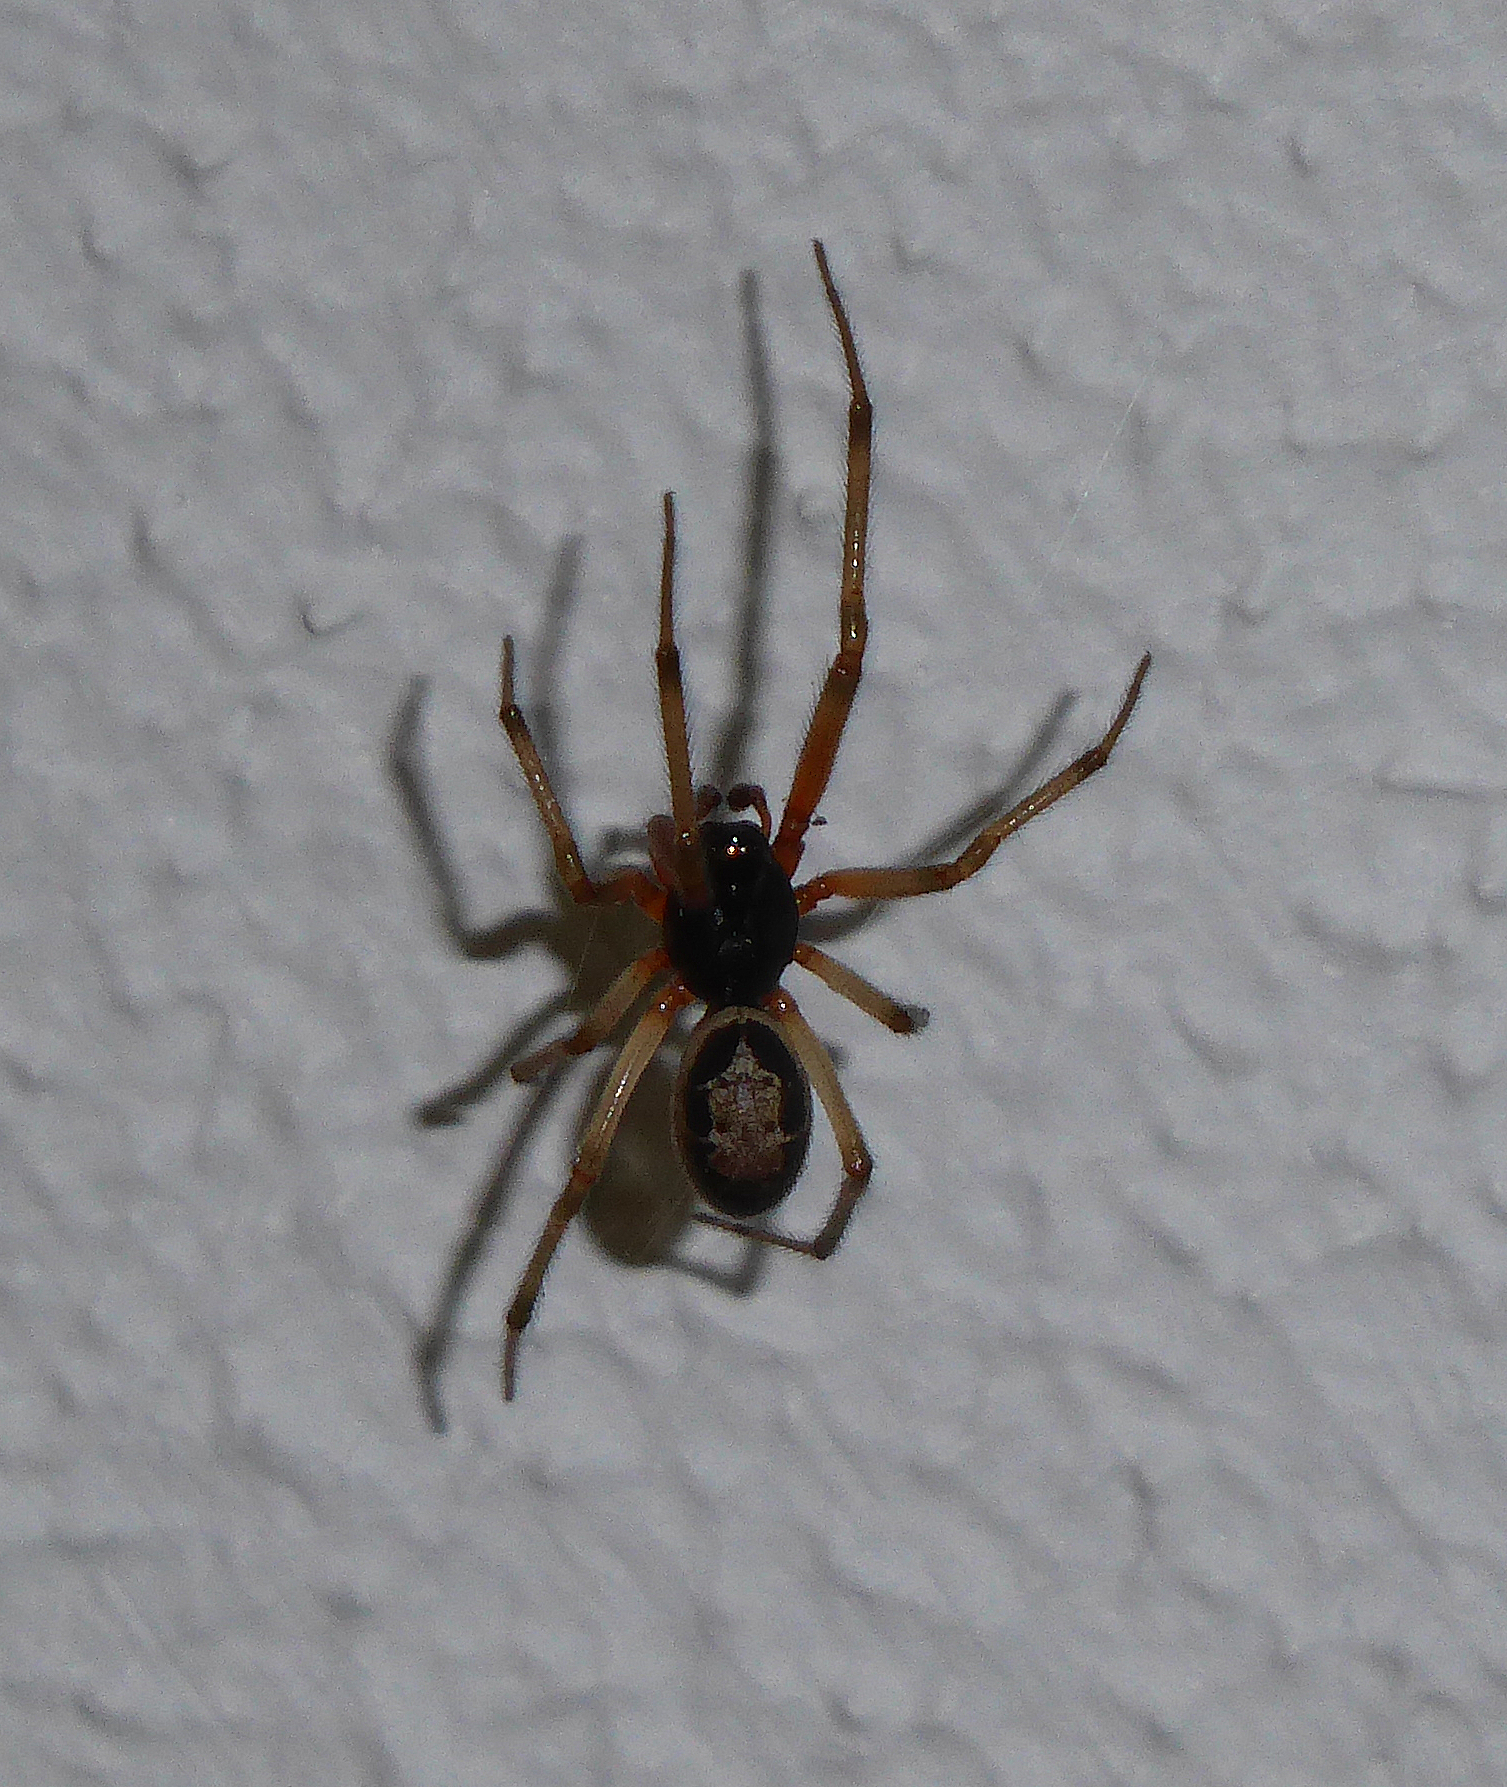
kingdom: Animalia
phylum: Arthropoda
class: Arachnida
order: Araneae
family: Theridiidae
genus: Steatoda
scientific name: Steatoda nobilis
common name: Cobweb weaver
